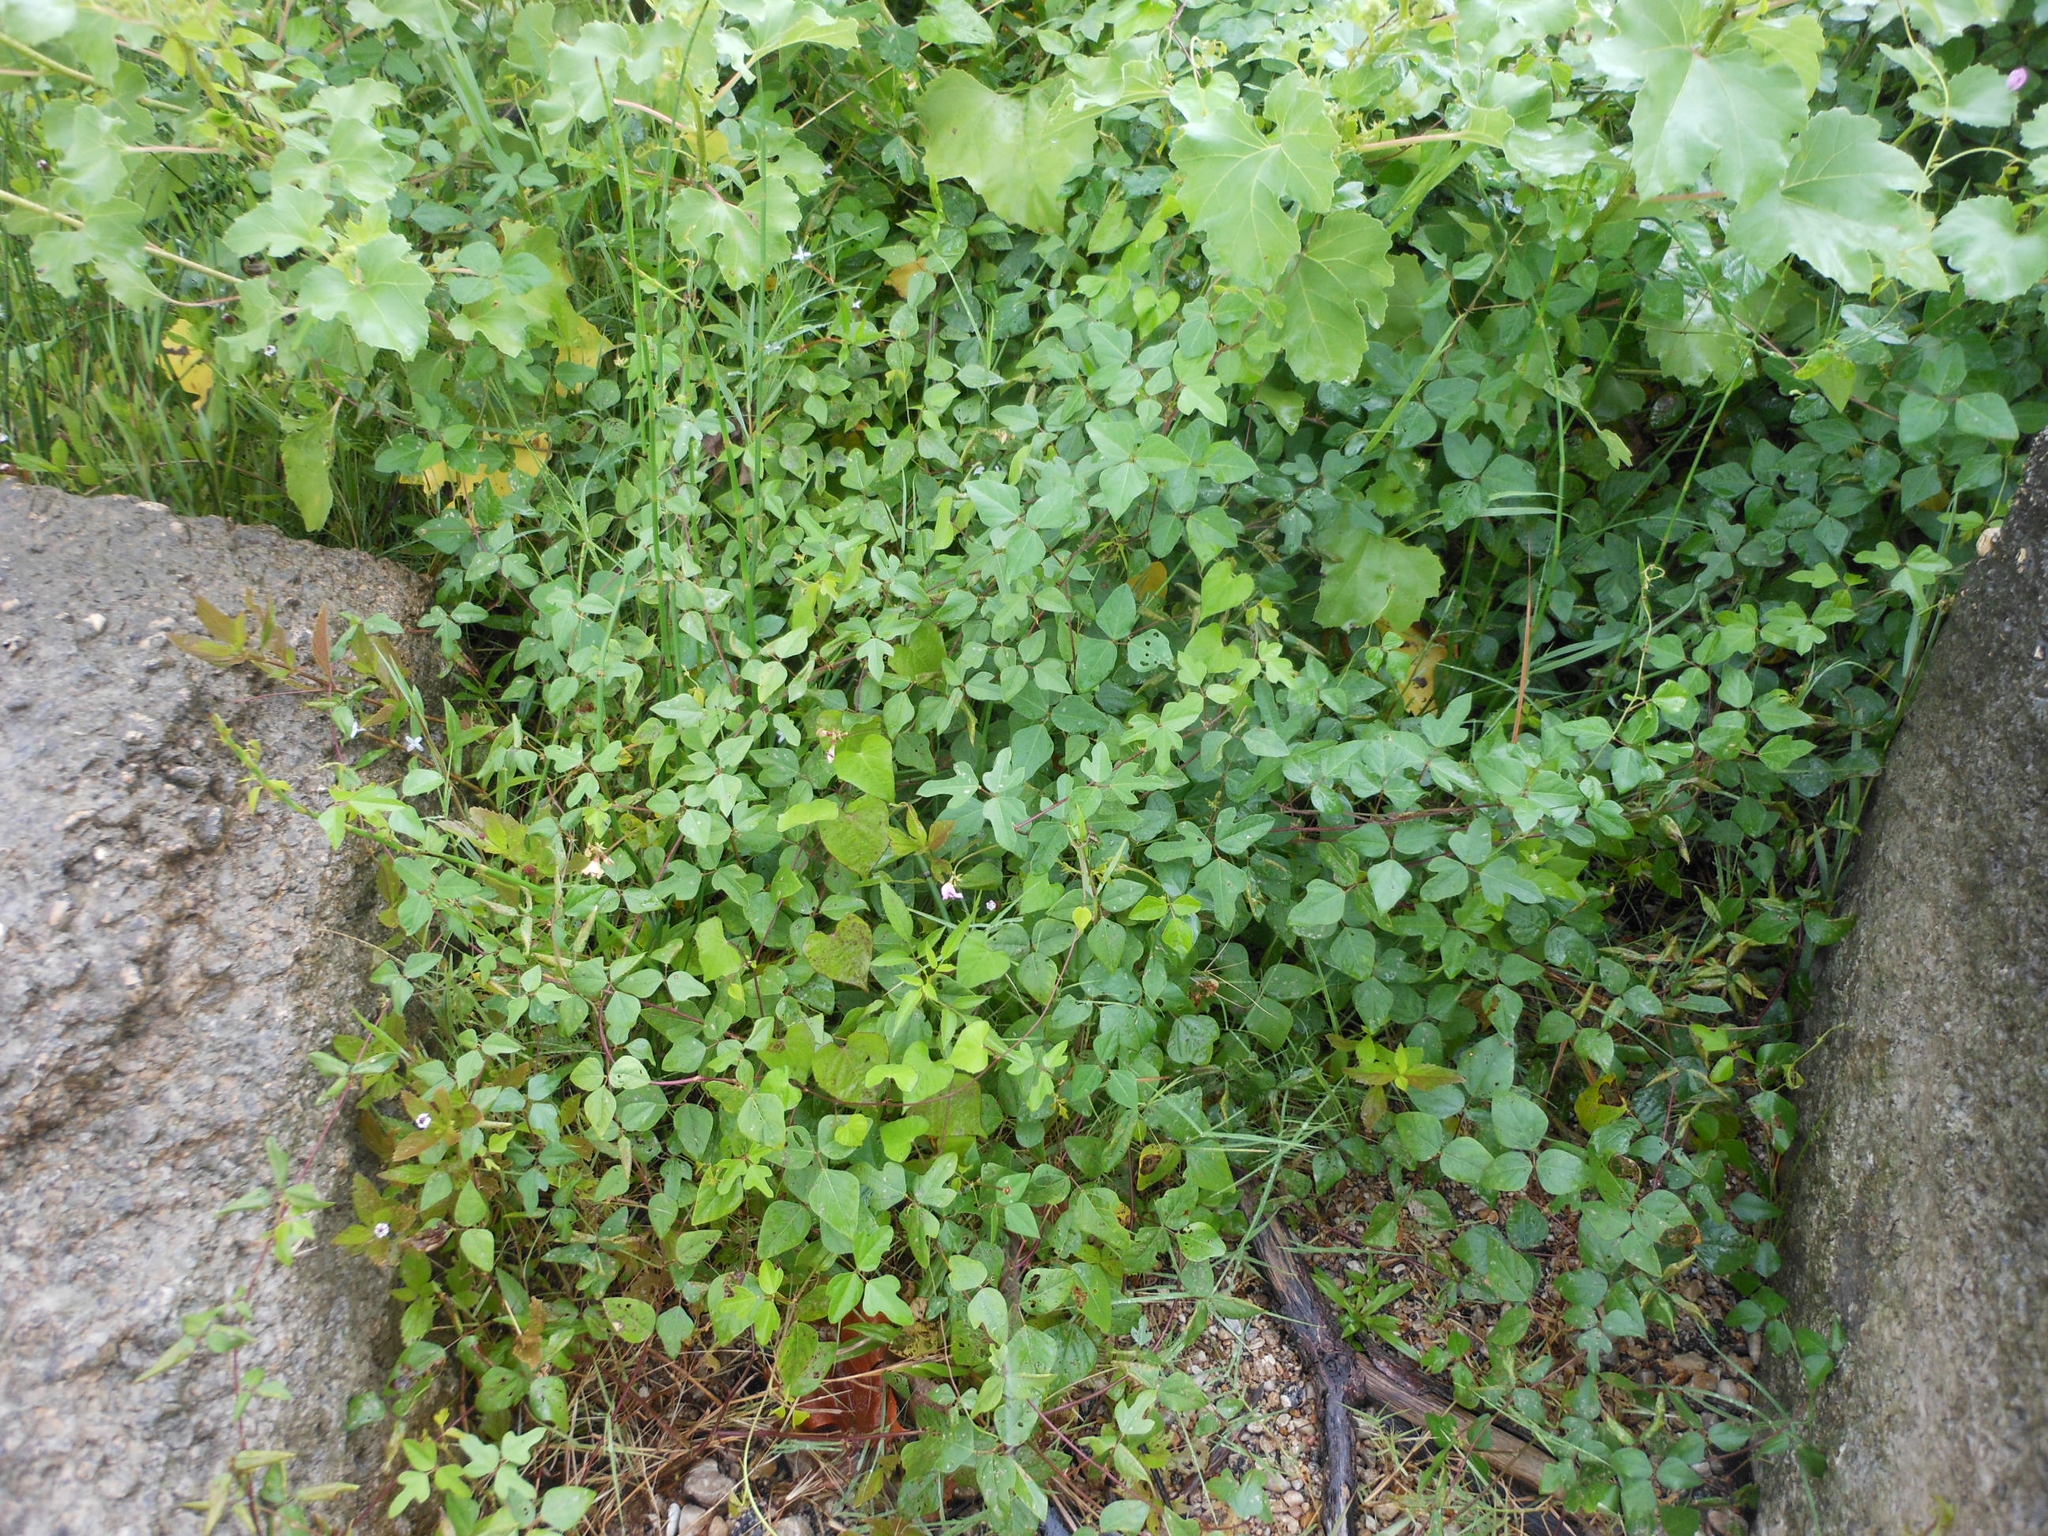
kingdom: Plantae
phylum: Tracheophyta
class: Magnoliopsida
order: Fabales
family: Fabaceae
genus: Strophostyles
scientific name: Strophostyles helvola
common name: Trailing wild bean
